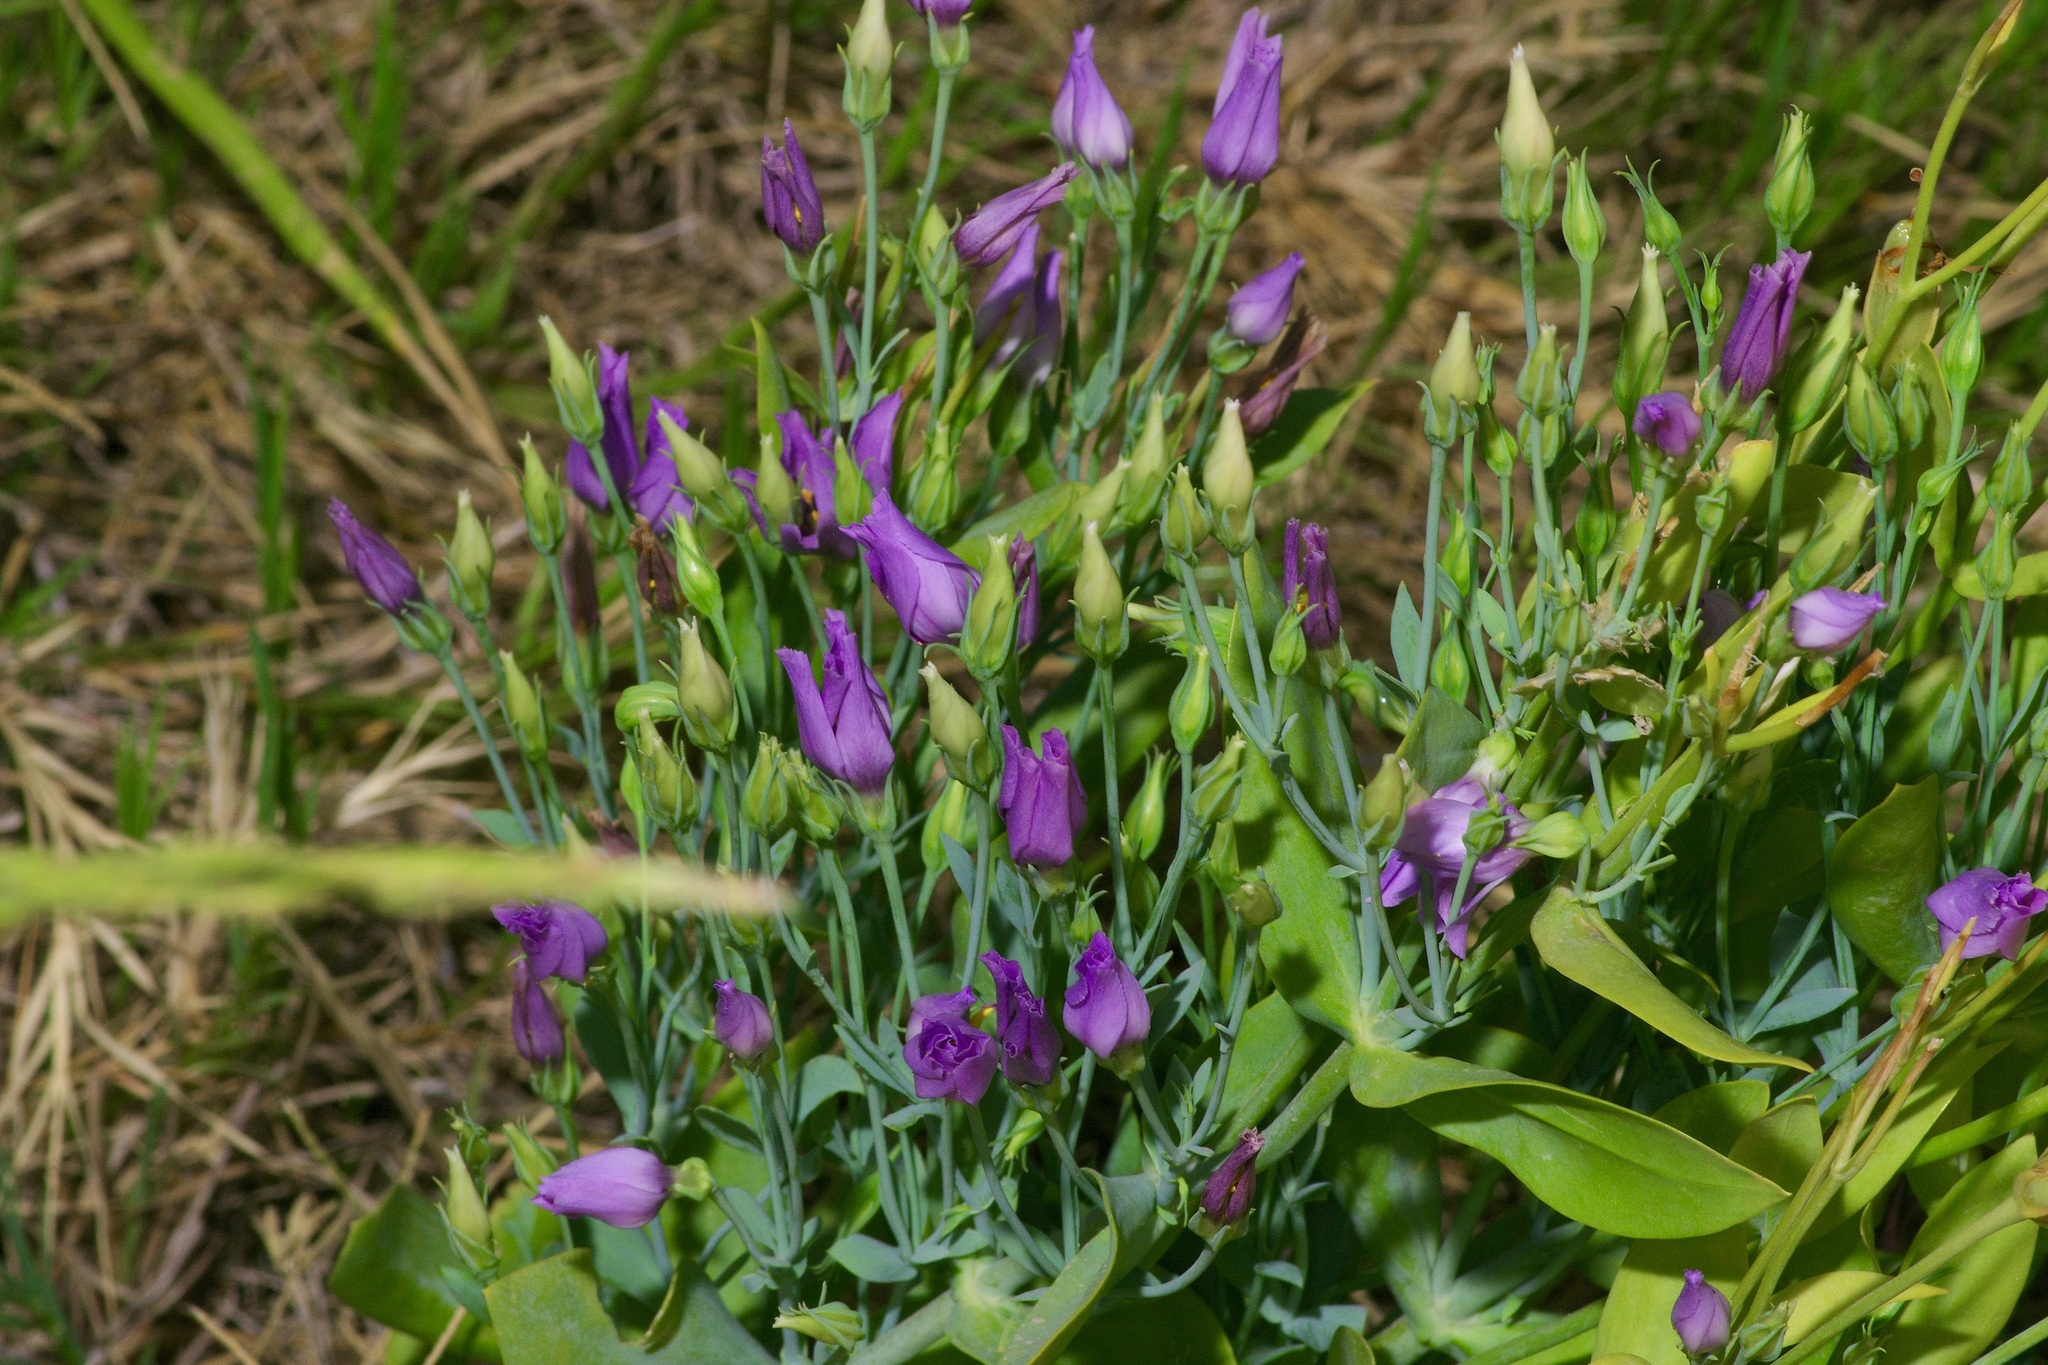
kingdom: Plantae
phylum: Tracheophyta
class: Magnoliopsida
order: Gentianales
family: Gentianaceae
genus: Eustoma
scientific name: Eustoma exaltatum
